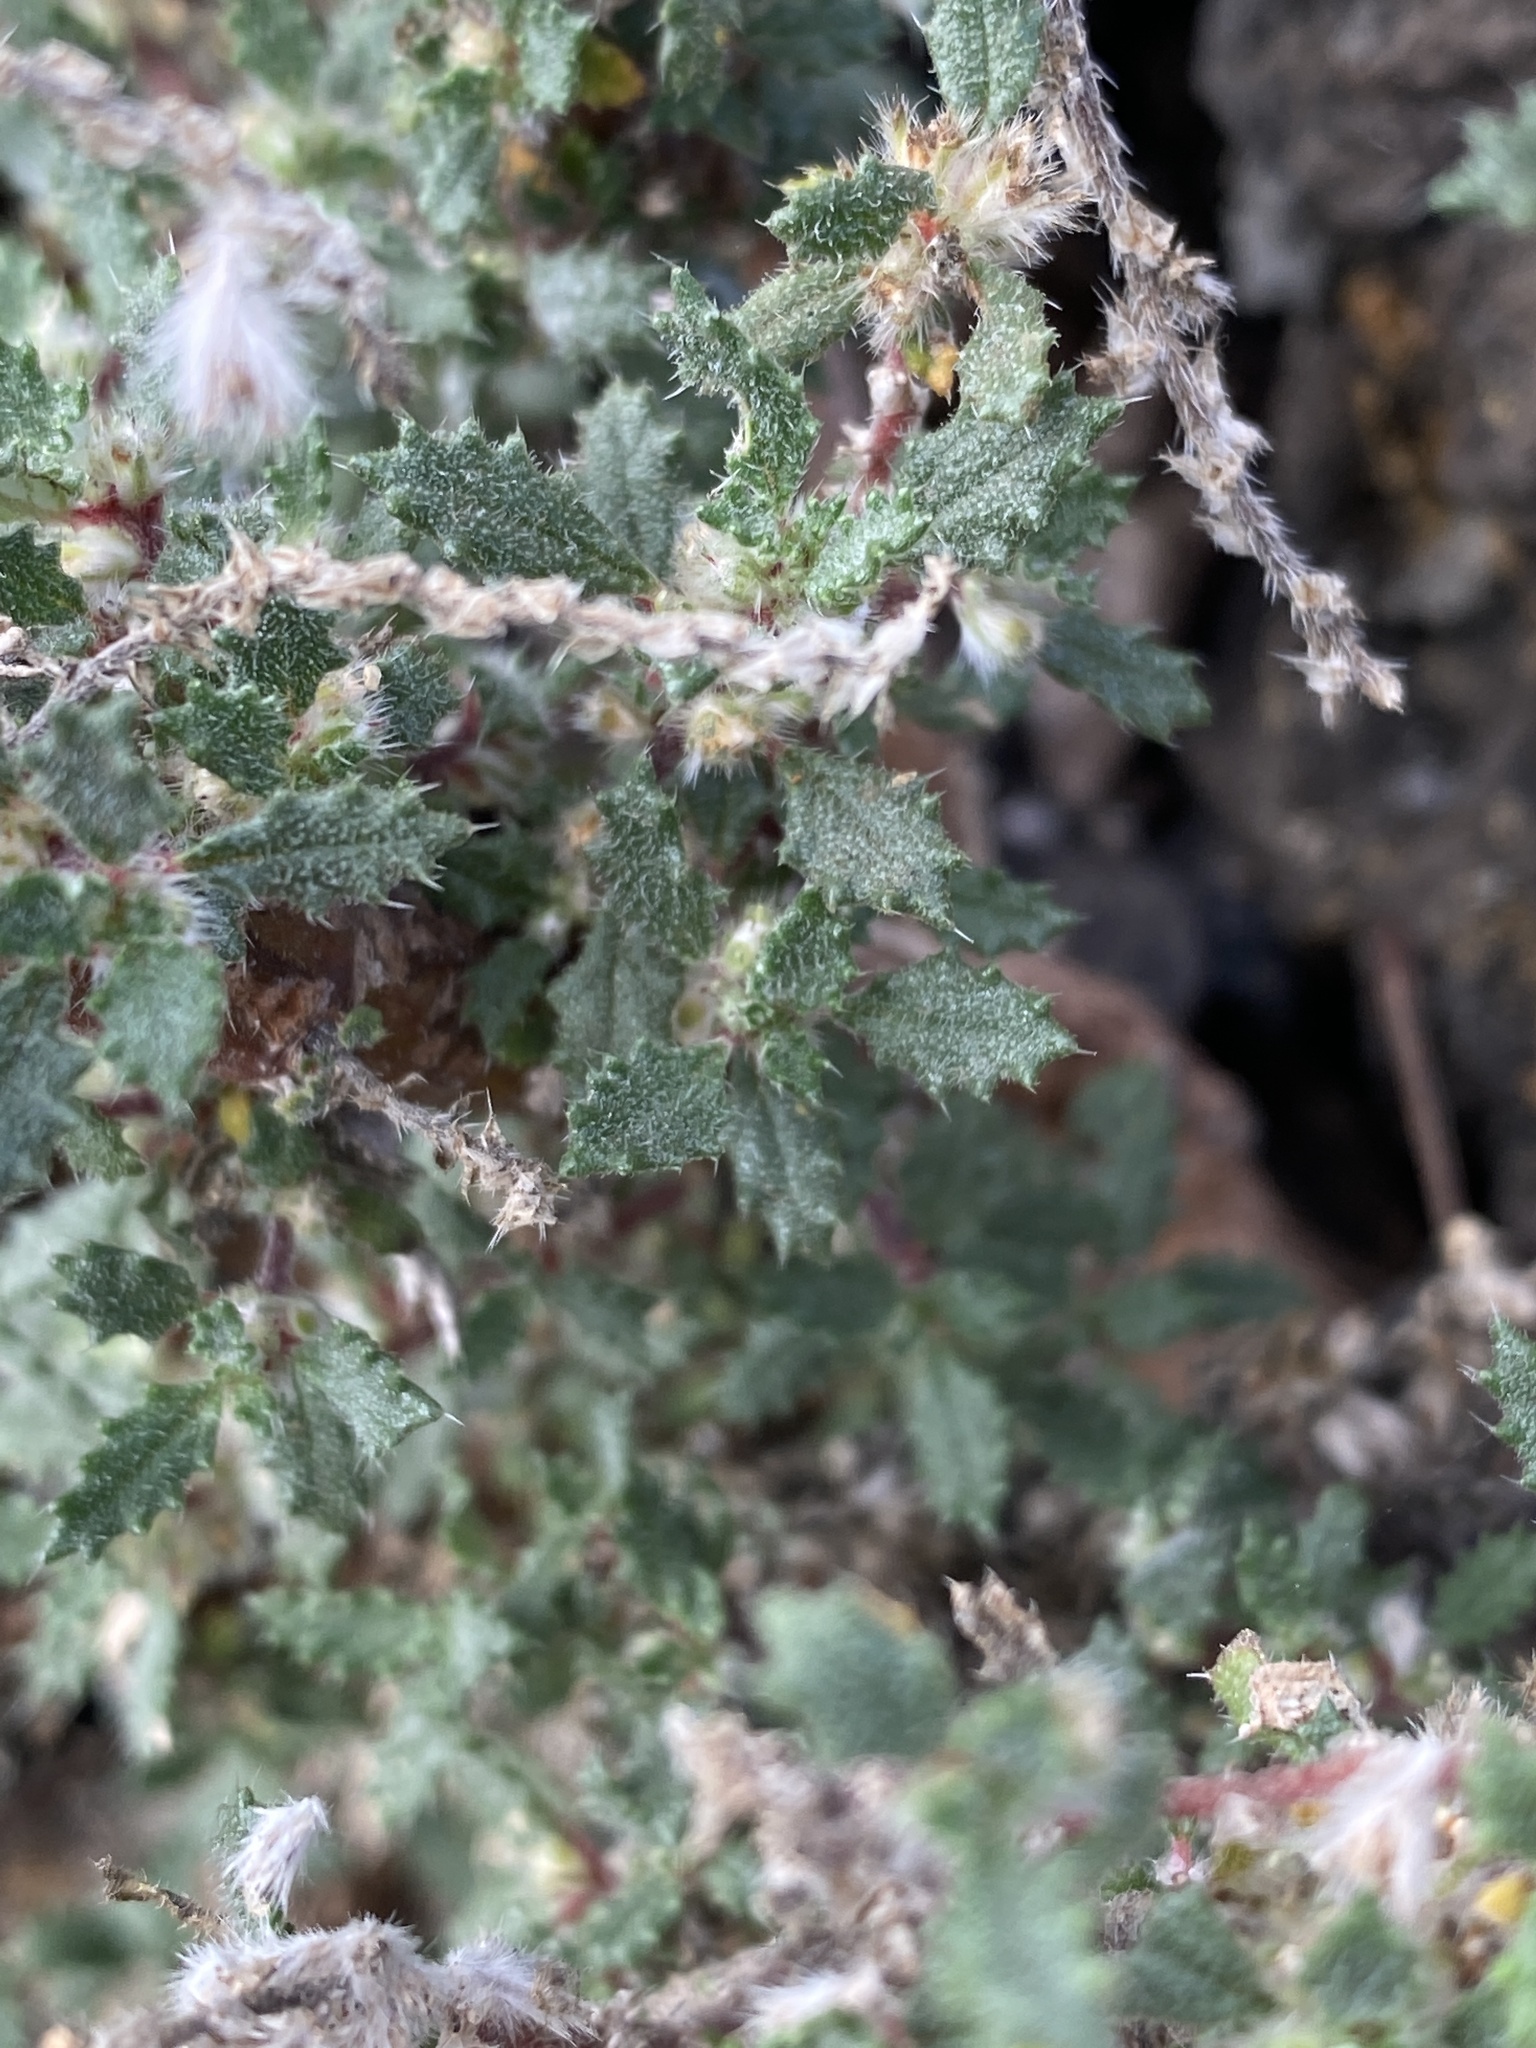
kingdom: Plantae
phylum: Tracheophyta
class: Magnoliopsida
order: Rosales
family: Urticaceae
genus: Forsskaolea
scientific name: Forsskaolea angustifolia
